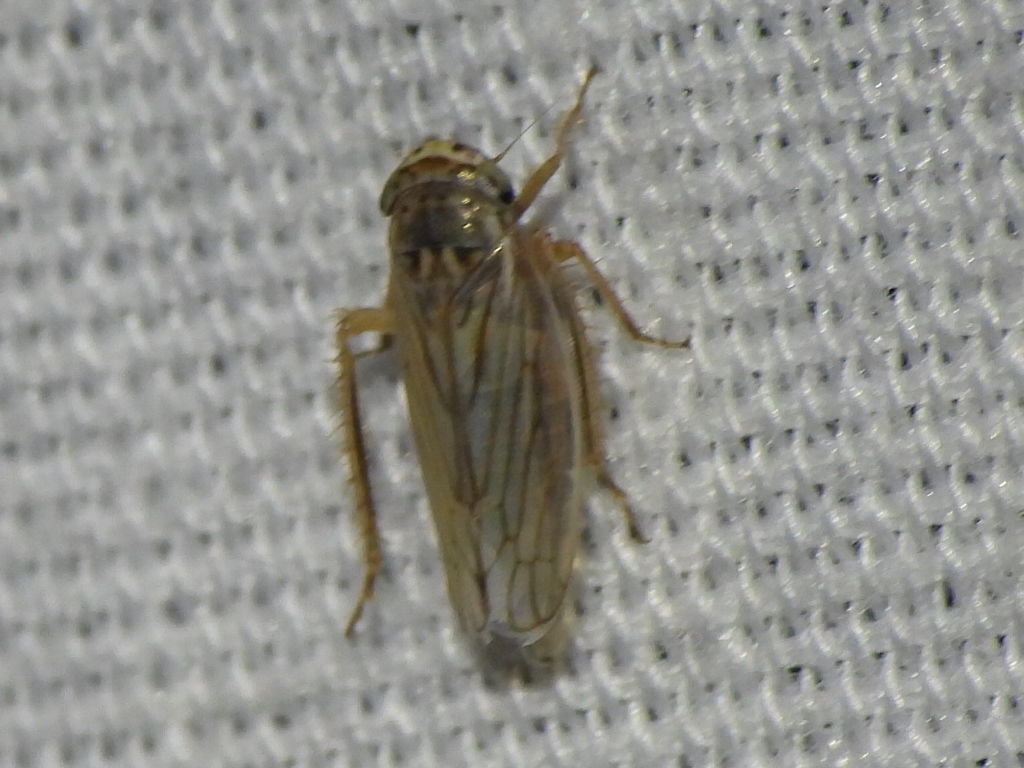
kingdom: Animalia
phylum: Arthropoda
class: Insecta
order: Hemiptera
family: Cicadellidae
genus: Exitianus
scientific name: Exitianus exitiosus
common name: Gray lawn leafhopper
